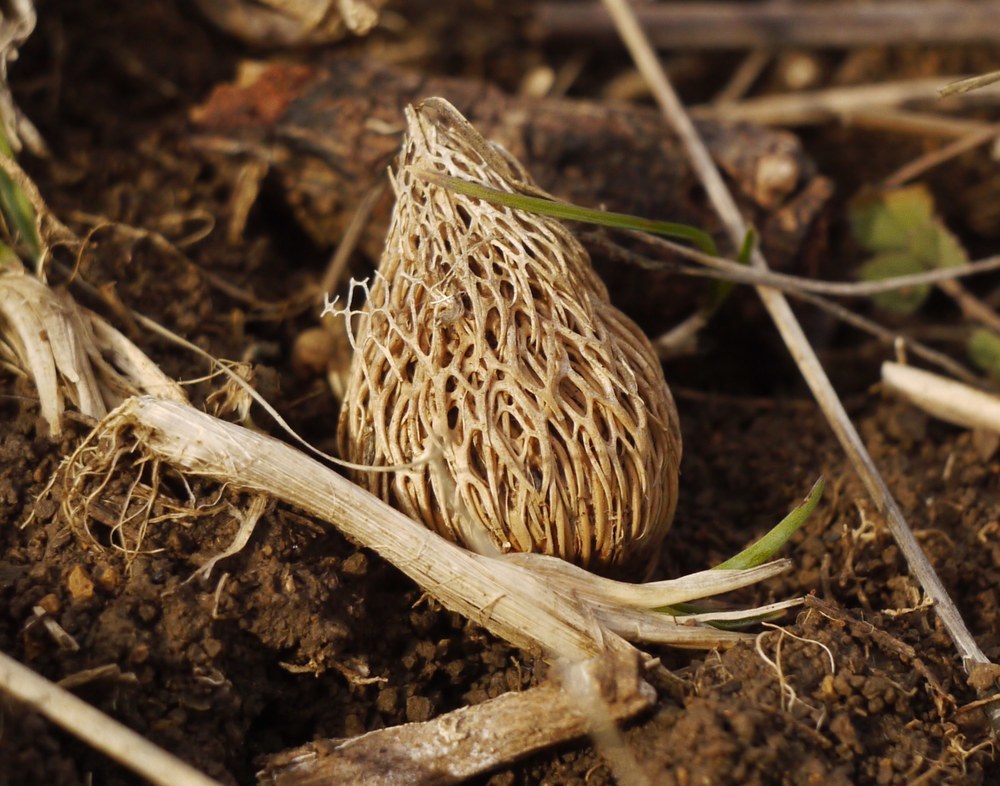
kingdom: Plantae
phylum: Tracheophyta
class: Liliopsida
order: Asparagales
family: Iridaceae
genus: Crocus
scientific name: Crocus reticulatus
